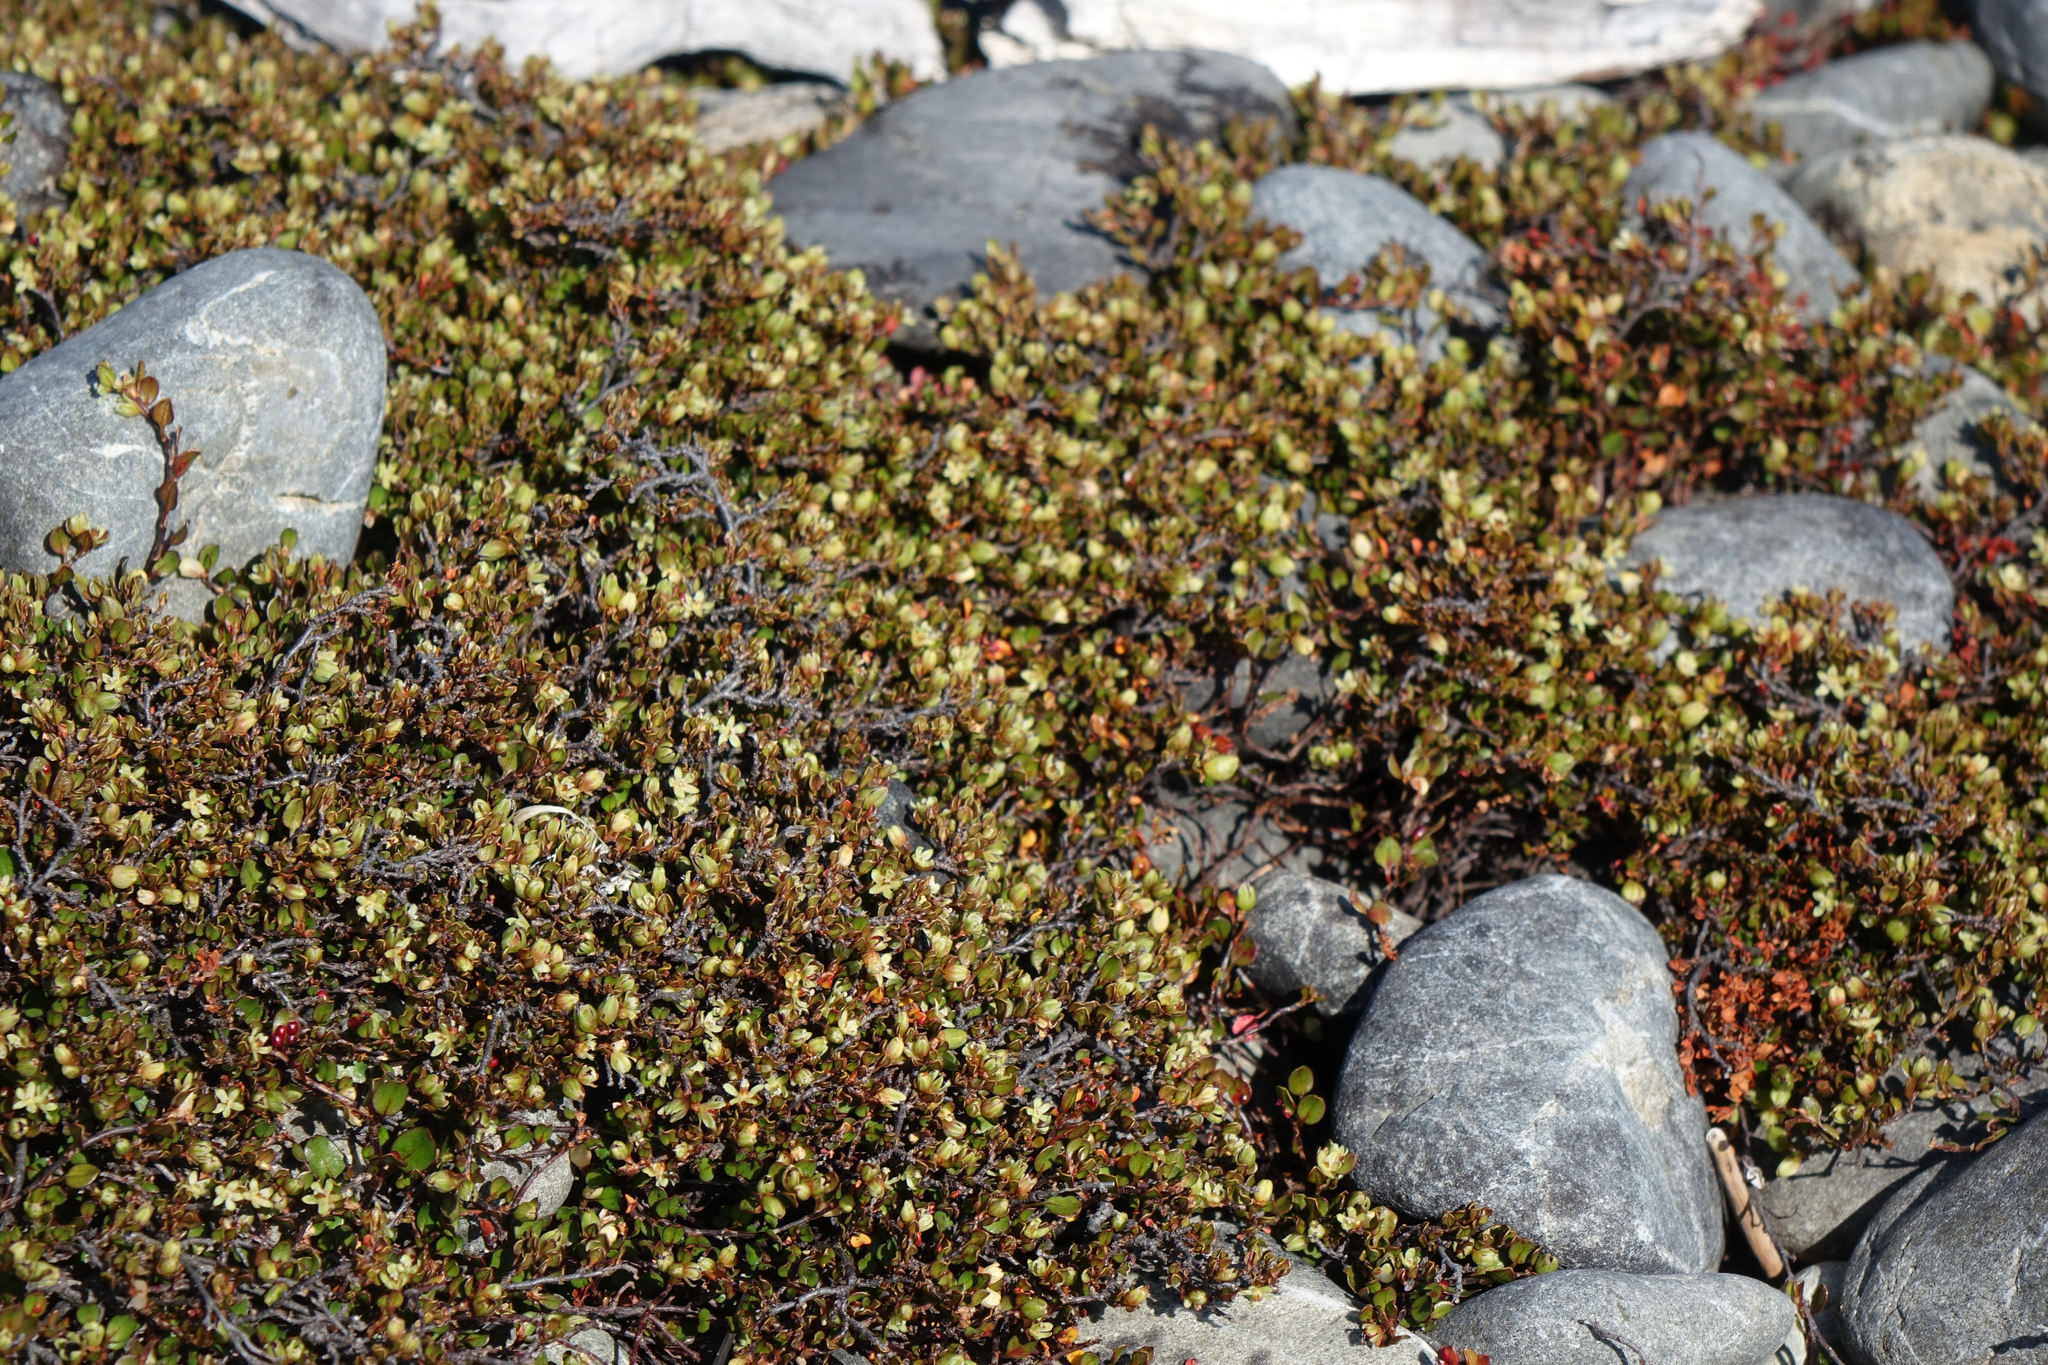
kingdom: Plantae
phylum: Tracheophyta
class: Magnoliopsida
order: Caryophyllales
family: Polygonaceae
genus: Muehlenbeckia
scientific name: Muehlenbeckia axillaris
